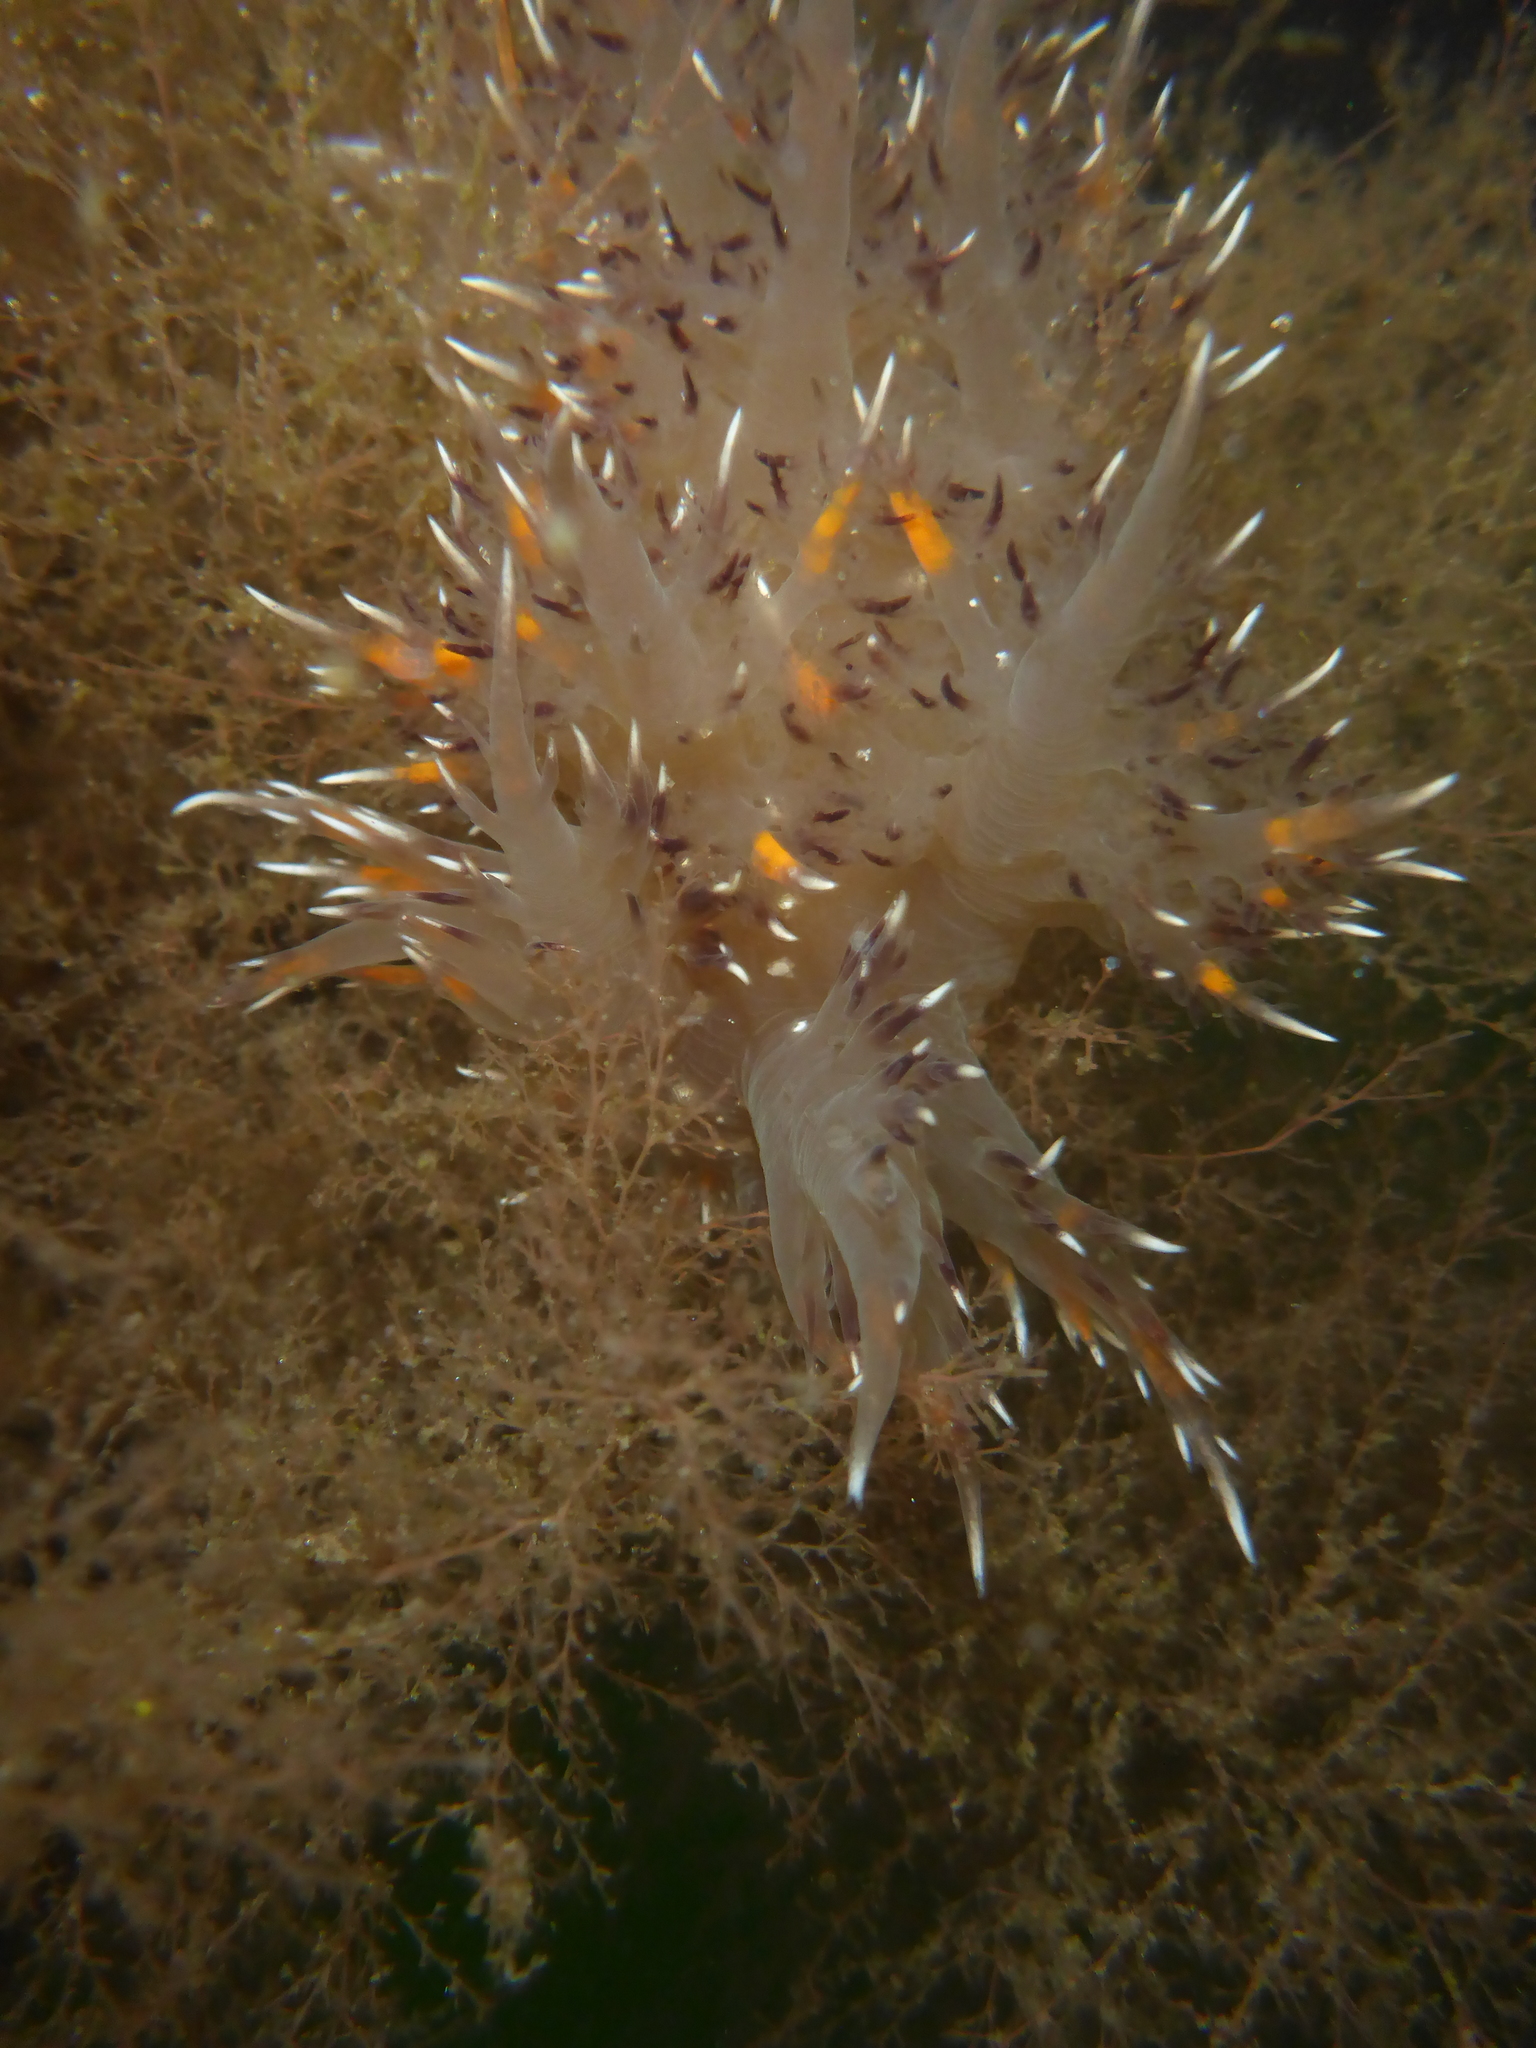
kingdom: Animalia
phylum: Mollusca
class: Gastropoda
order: Nudibranchia
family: Dendronotidae
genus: Dendronotus
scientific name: Dendronotus iris
